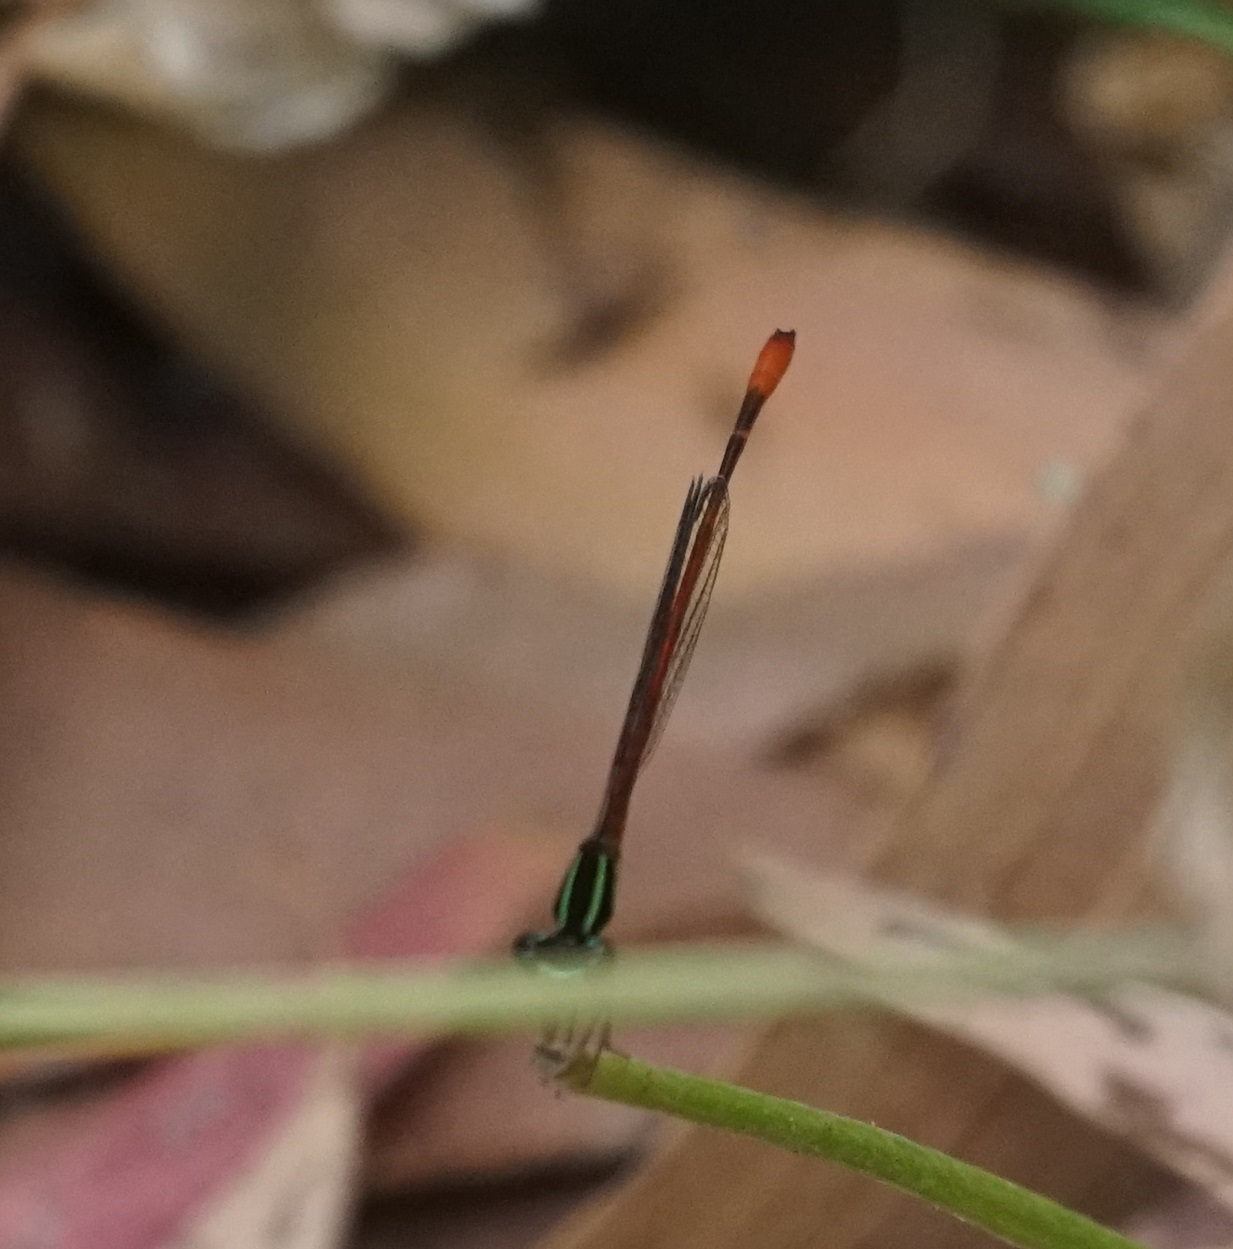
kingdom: Animalia
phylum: Arthropoda
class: Insecta
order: Odonata
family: Coenagrionidae
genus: Argiocnemis
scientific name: Argiocnemis rubescens
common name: Red-tipped shadefly
